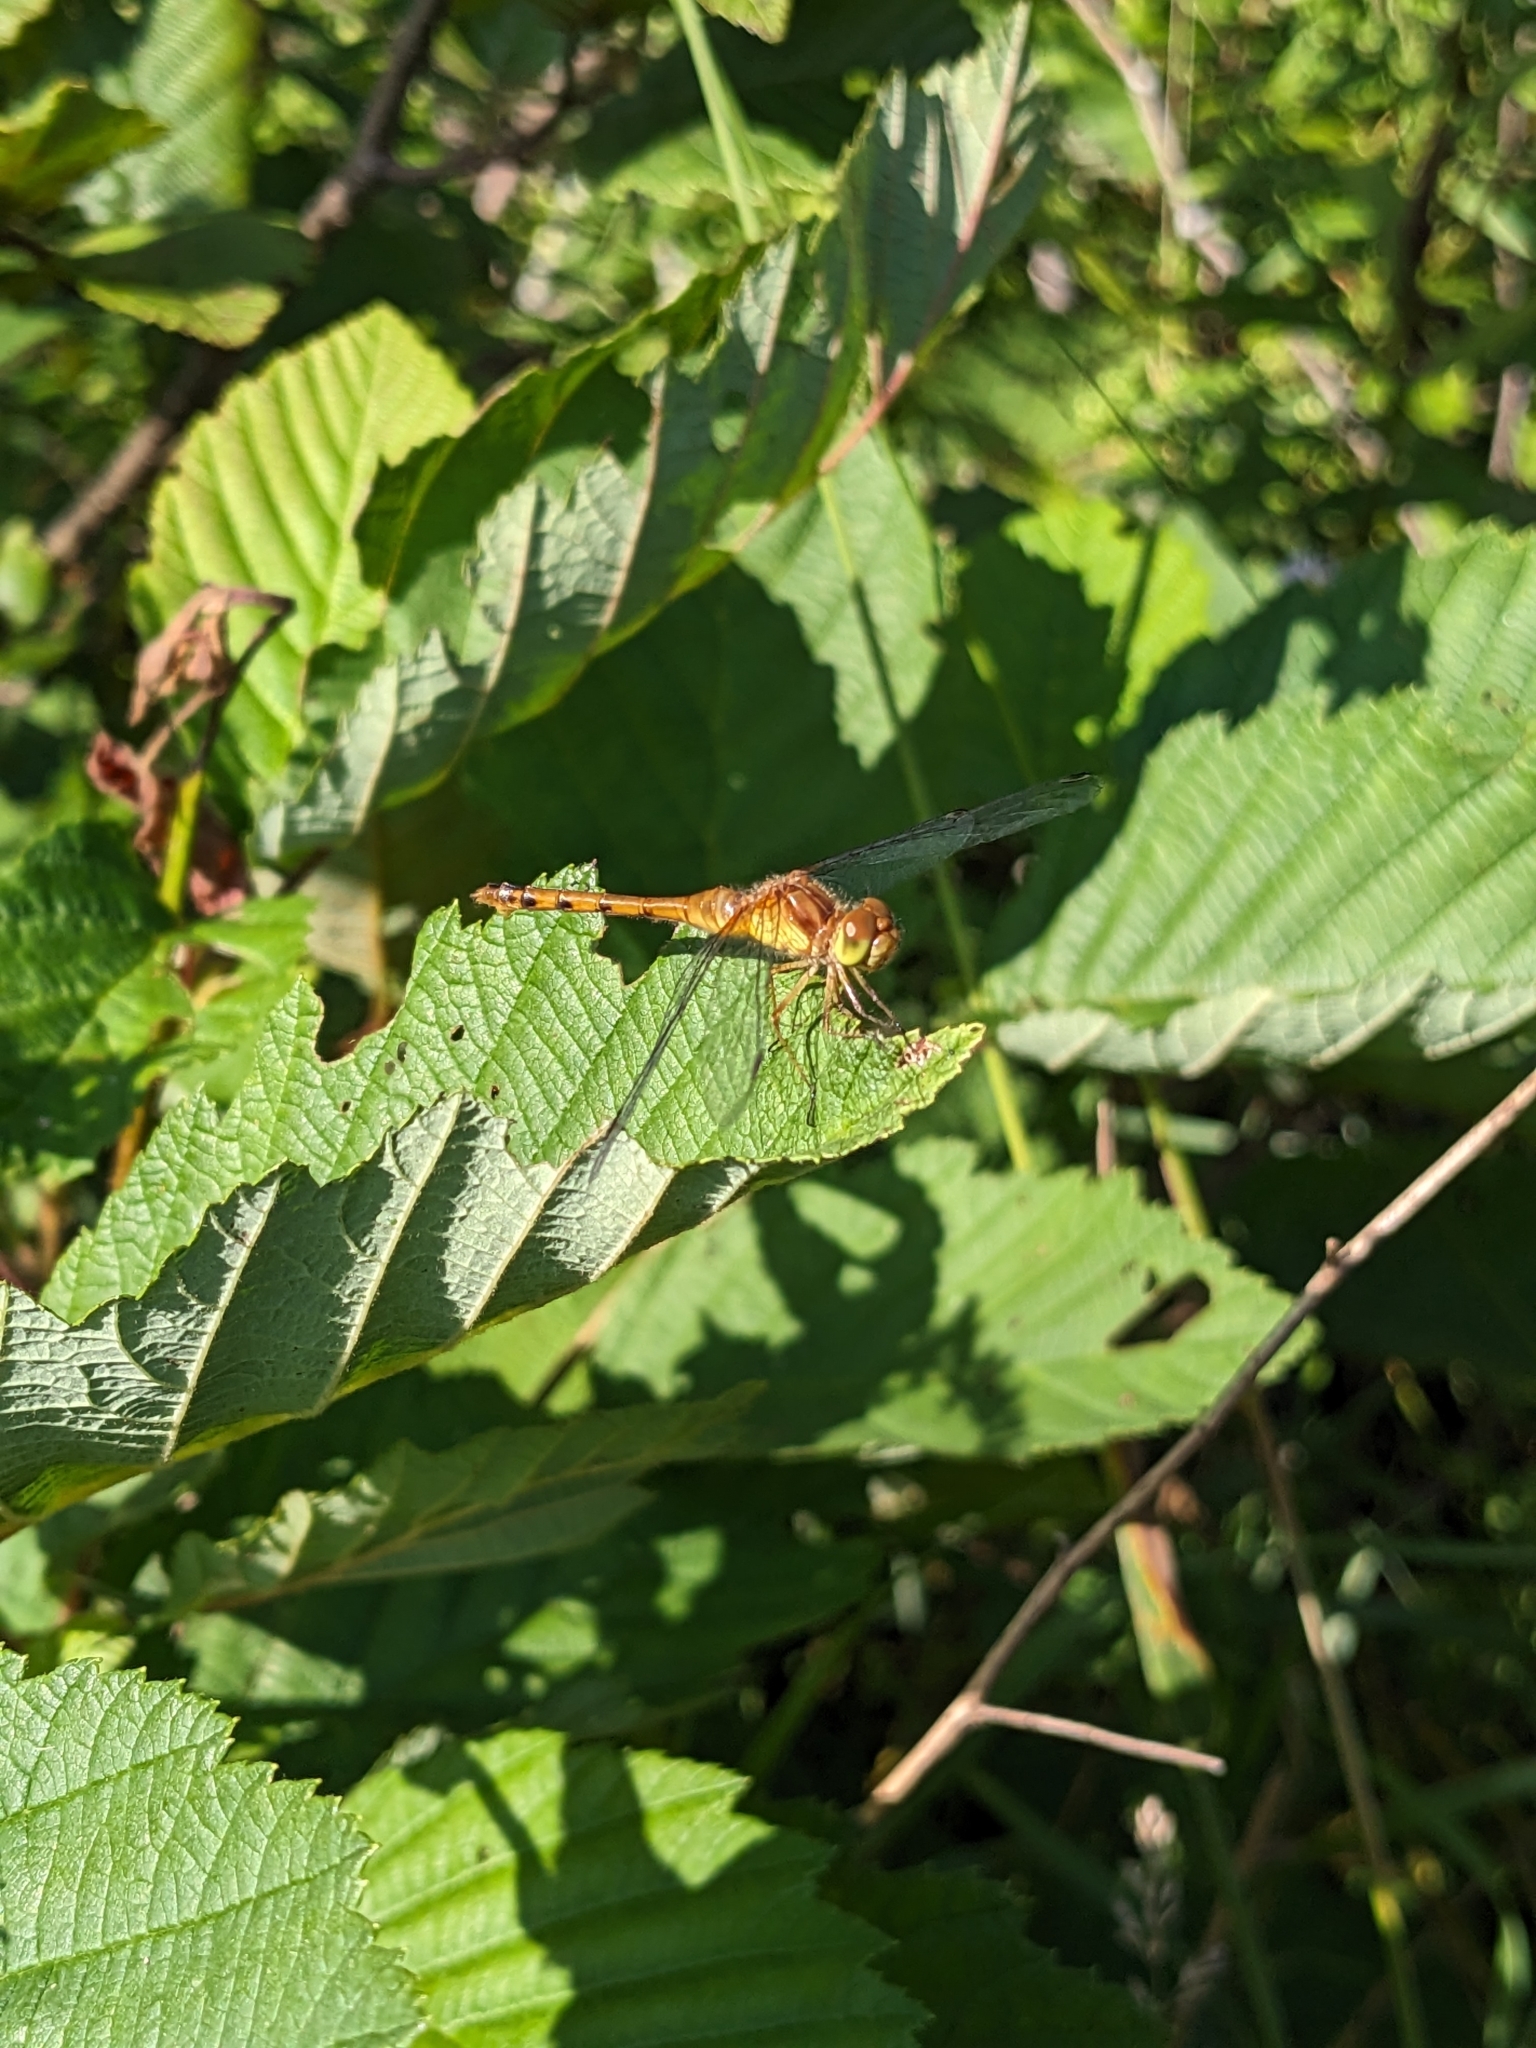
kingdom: Animalia
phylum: Arthropoda
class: Insecta
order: Odonata
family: Libellulidae
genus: Sympetrum
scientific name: Sympetrum vicinum
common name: Autumn meadowhawk
